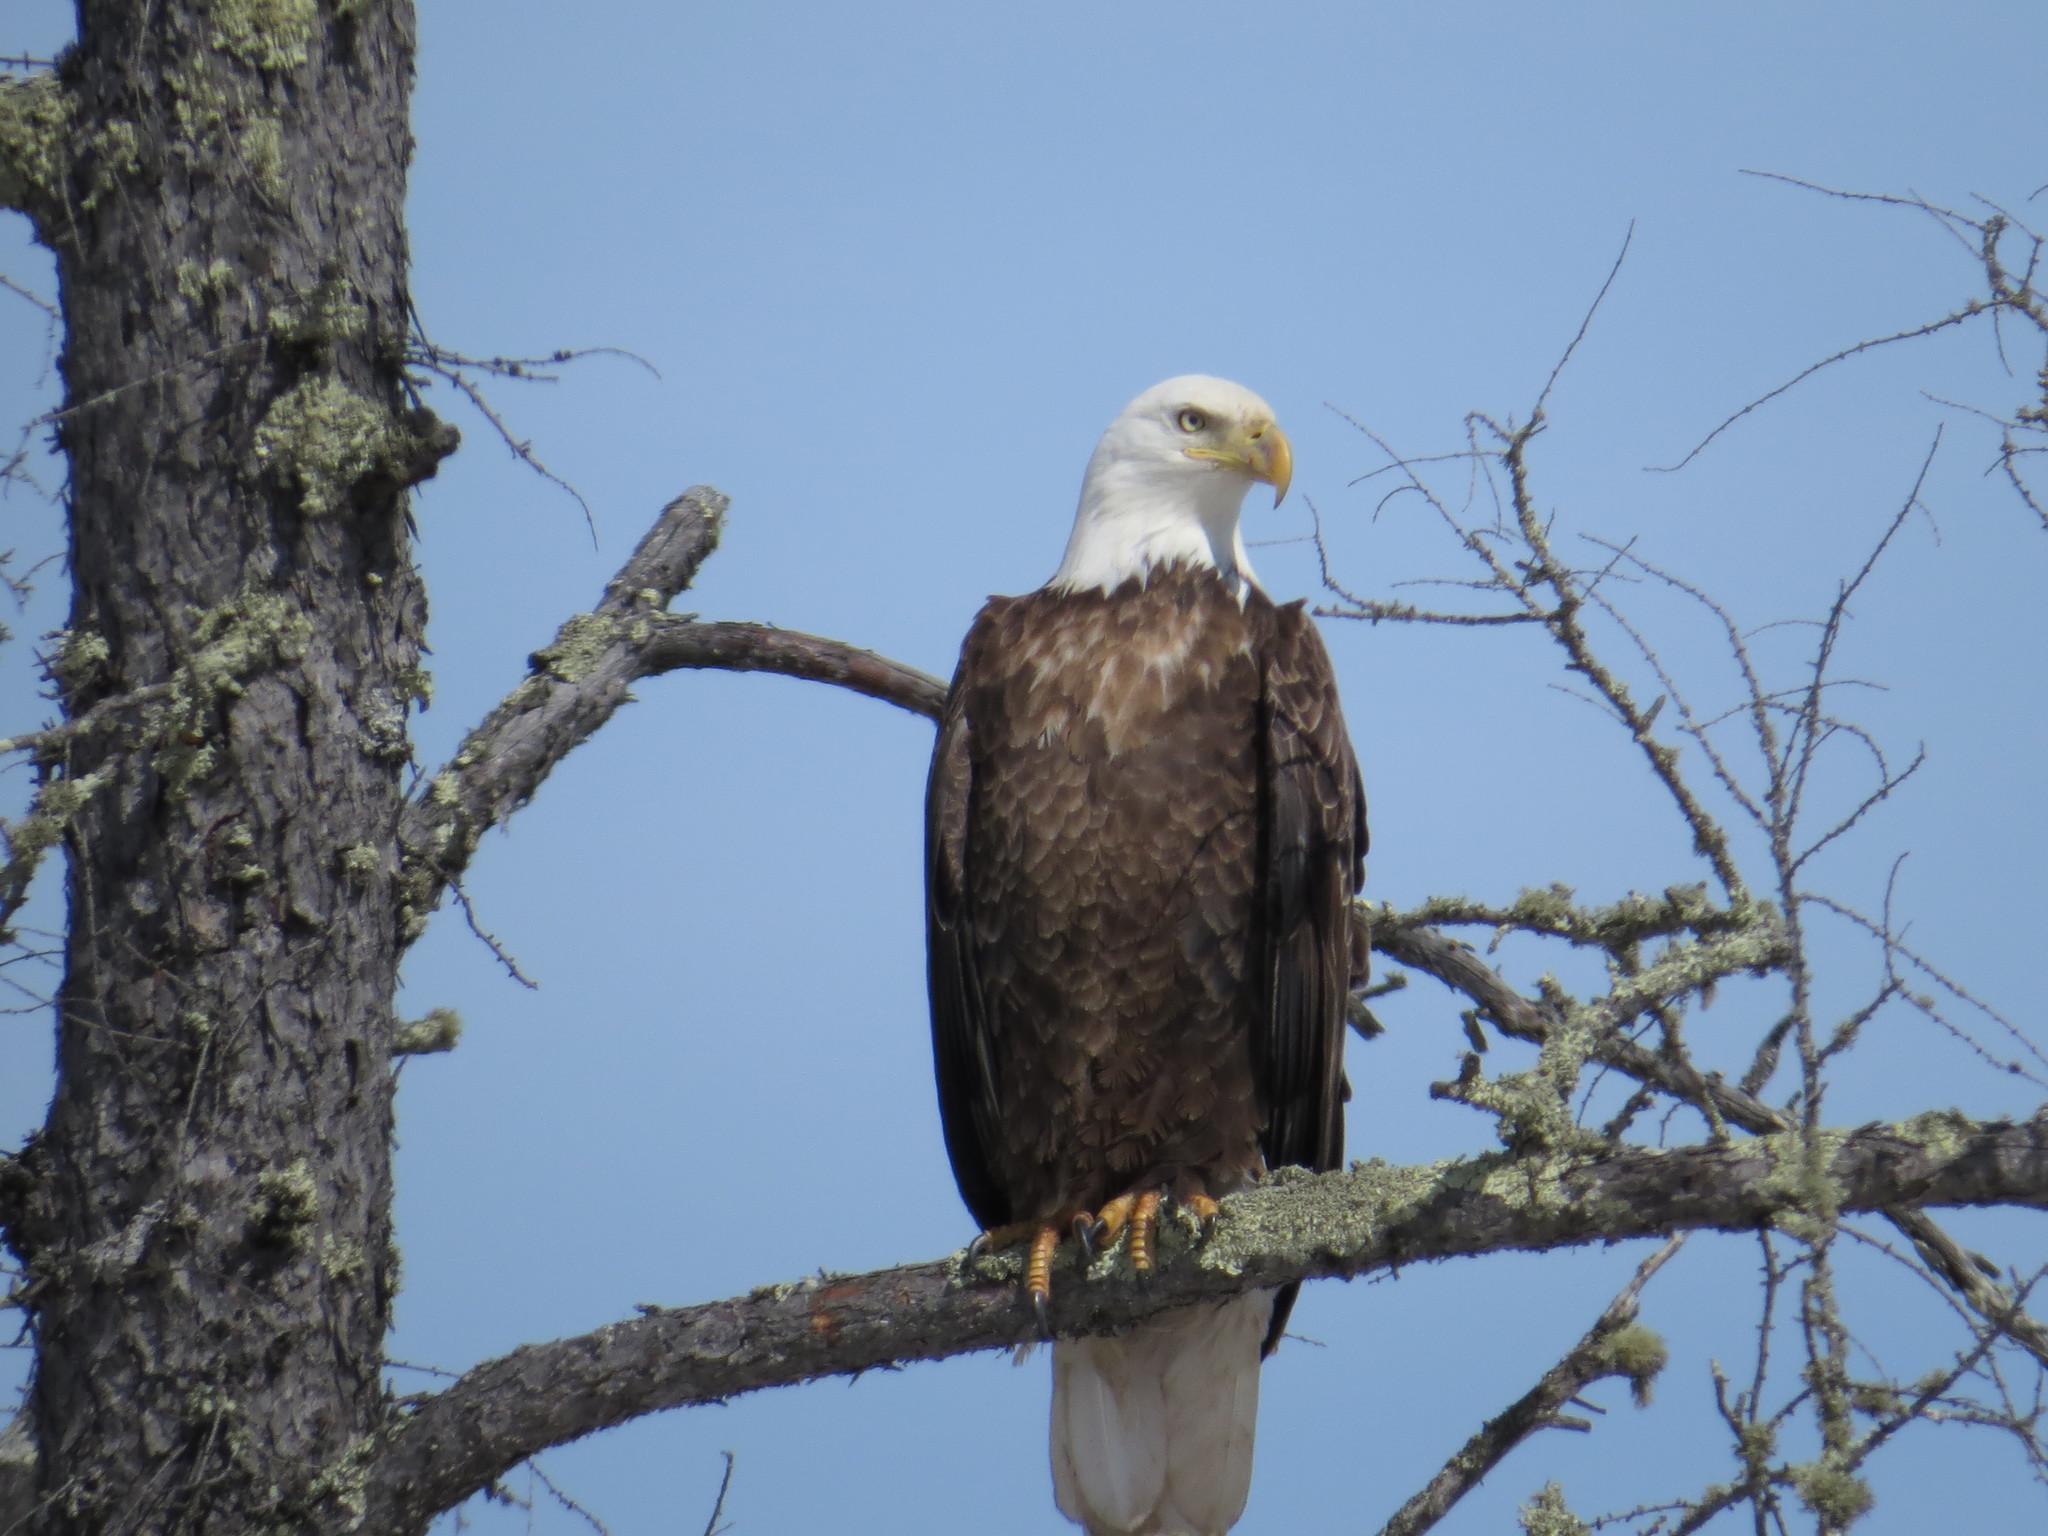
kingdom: Animalia
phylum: Chordata
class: Aves
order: Accipitriformes
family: Accipitridae
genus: Haliaeetus
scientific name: Haliaeetus leucocephalus
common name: Bald eagle
